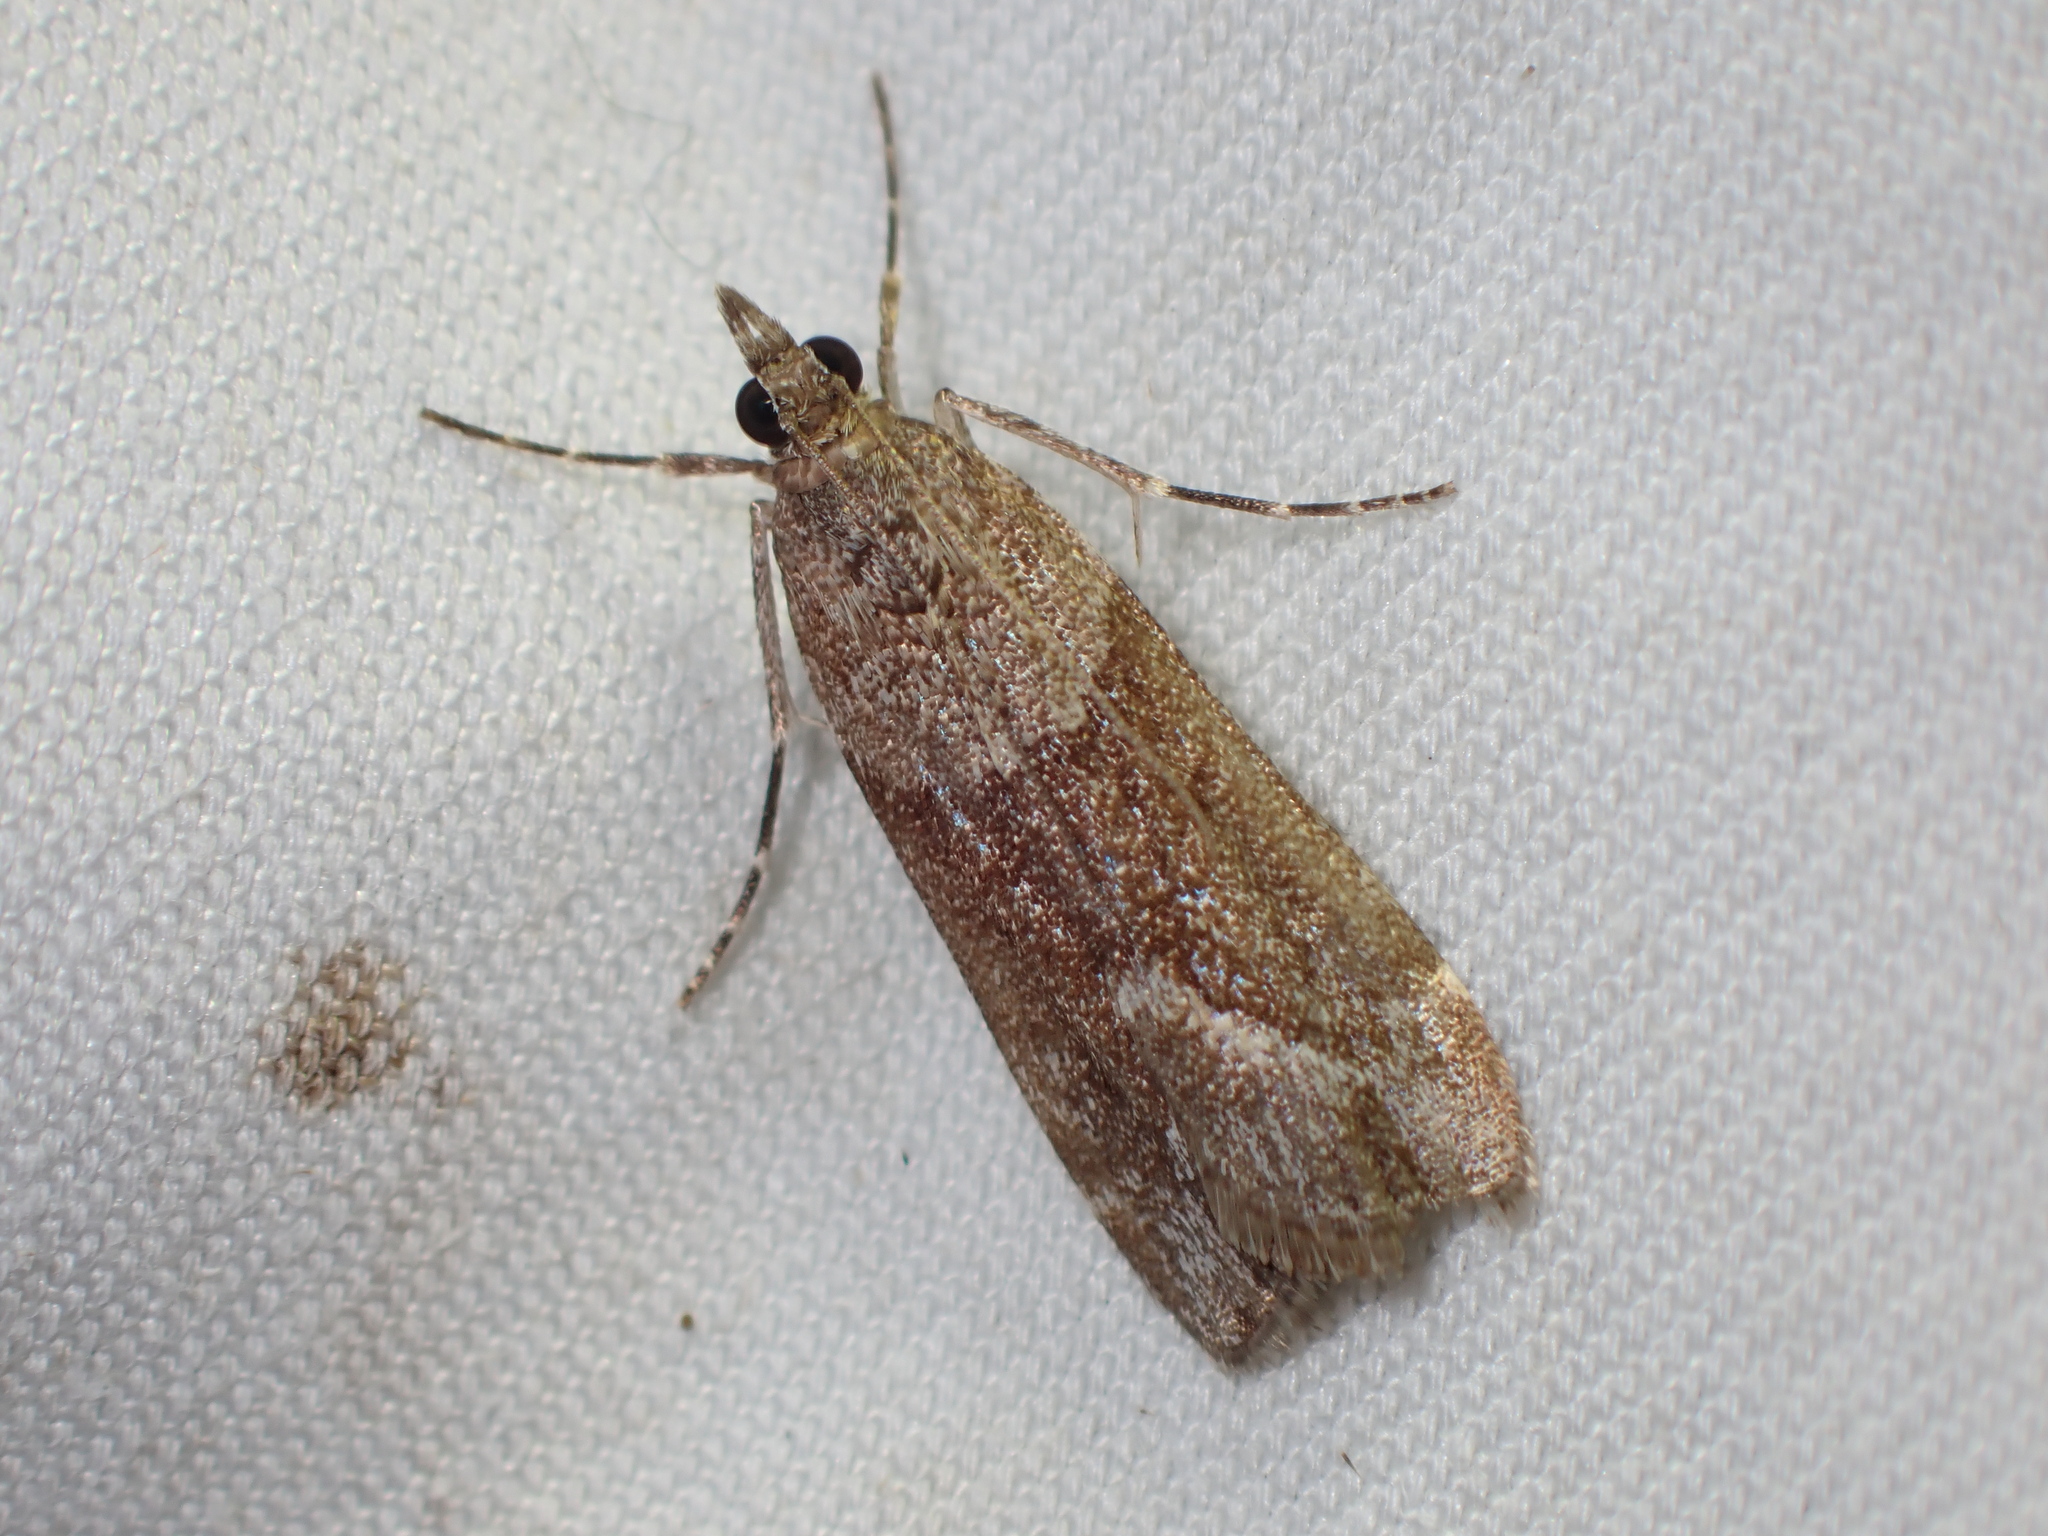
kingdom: Animalia
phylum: Arthropoda
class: Insecta
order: Lepidoptera
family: Crambidae
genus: Eudonia
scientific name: Eudonia submarginalis
